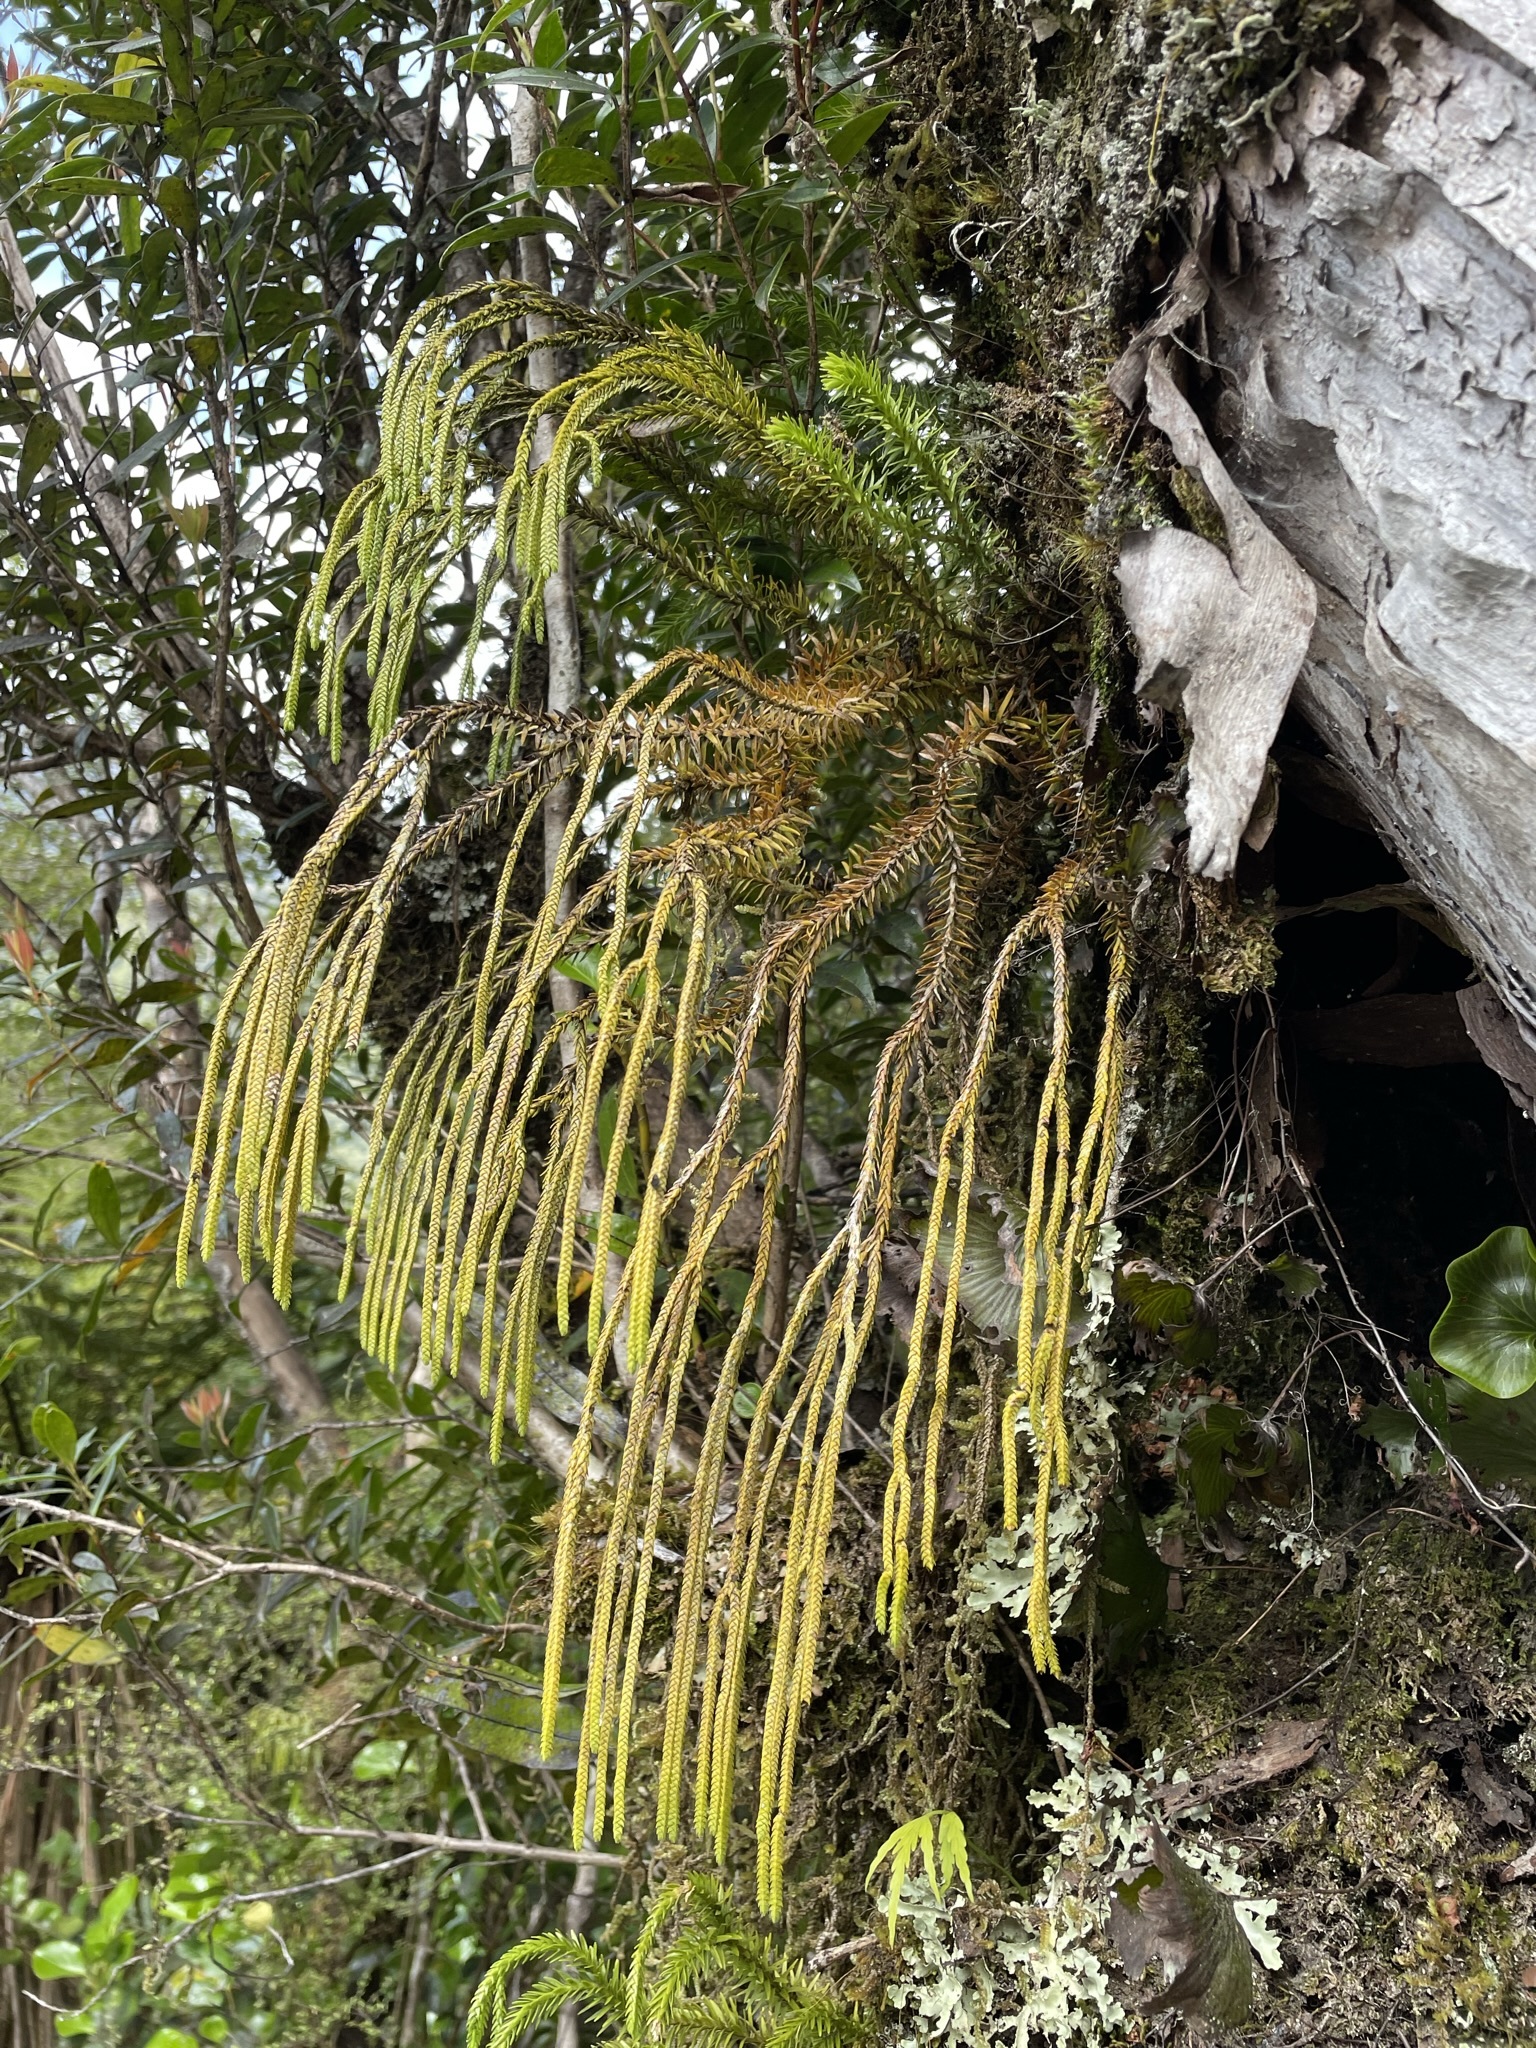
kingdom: Plantae
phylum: Tracheophyta
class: Lycopodiopsida
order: Lycopodiales
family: Lycopodiaceae
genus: Phlegmariurus
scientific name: Phlegmariurus varius
